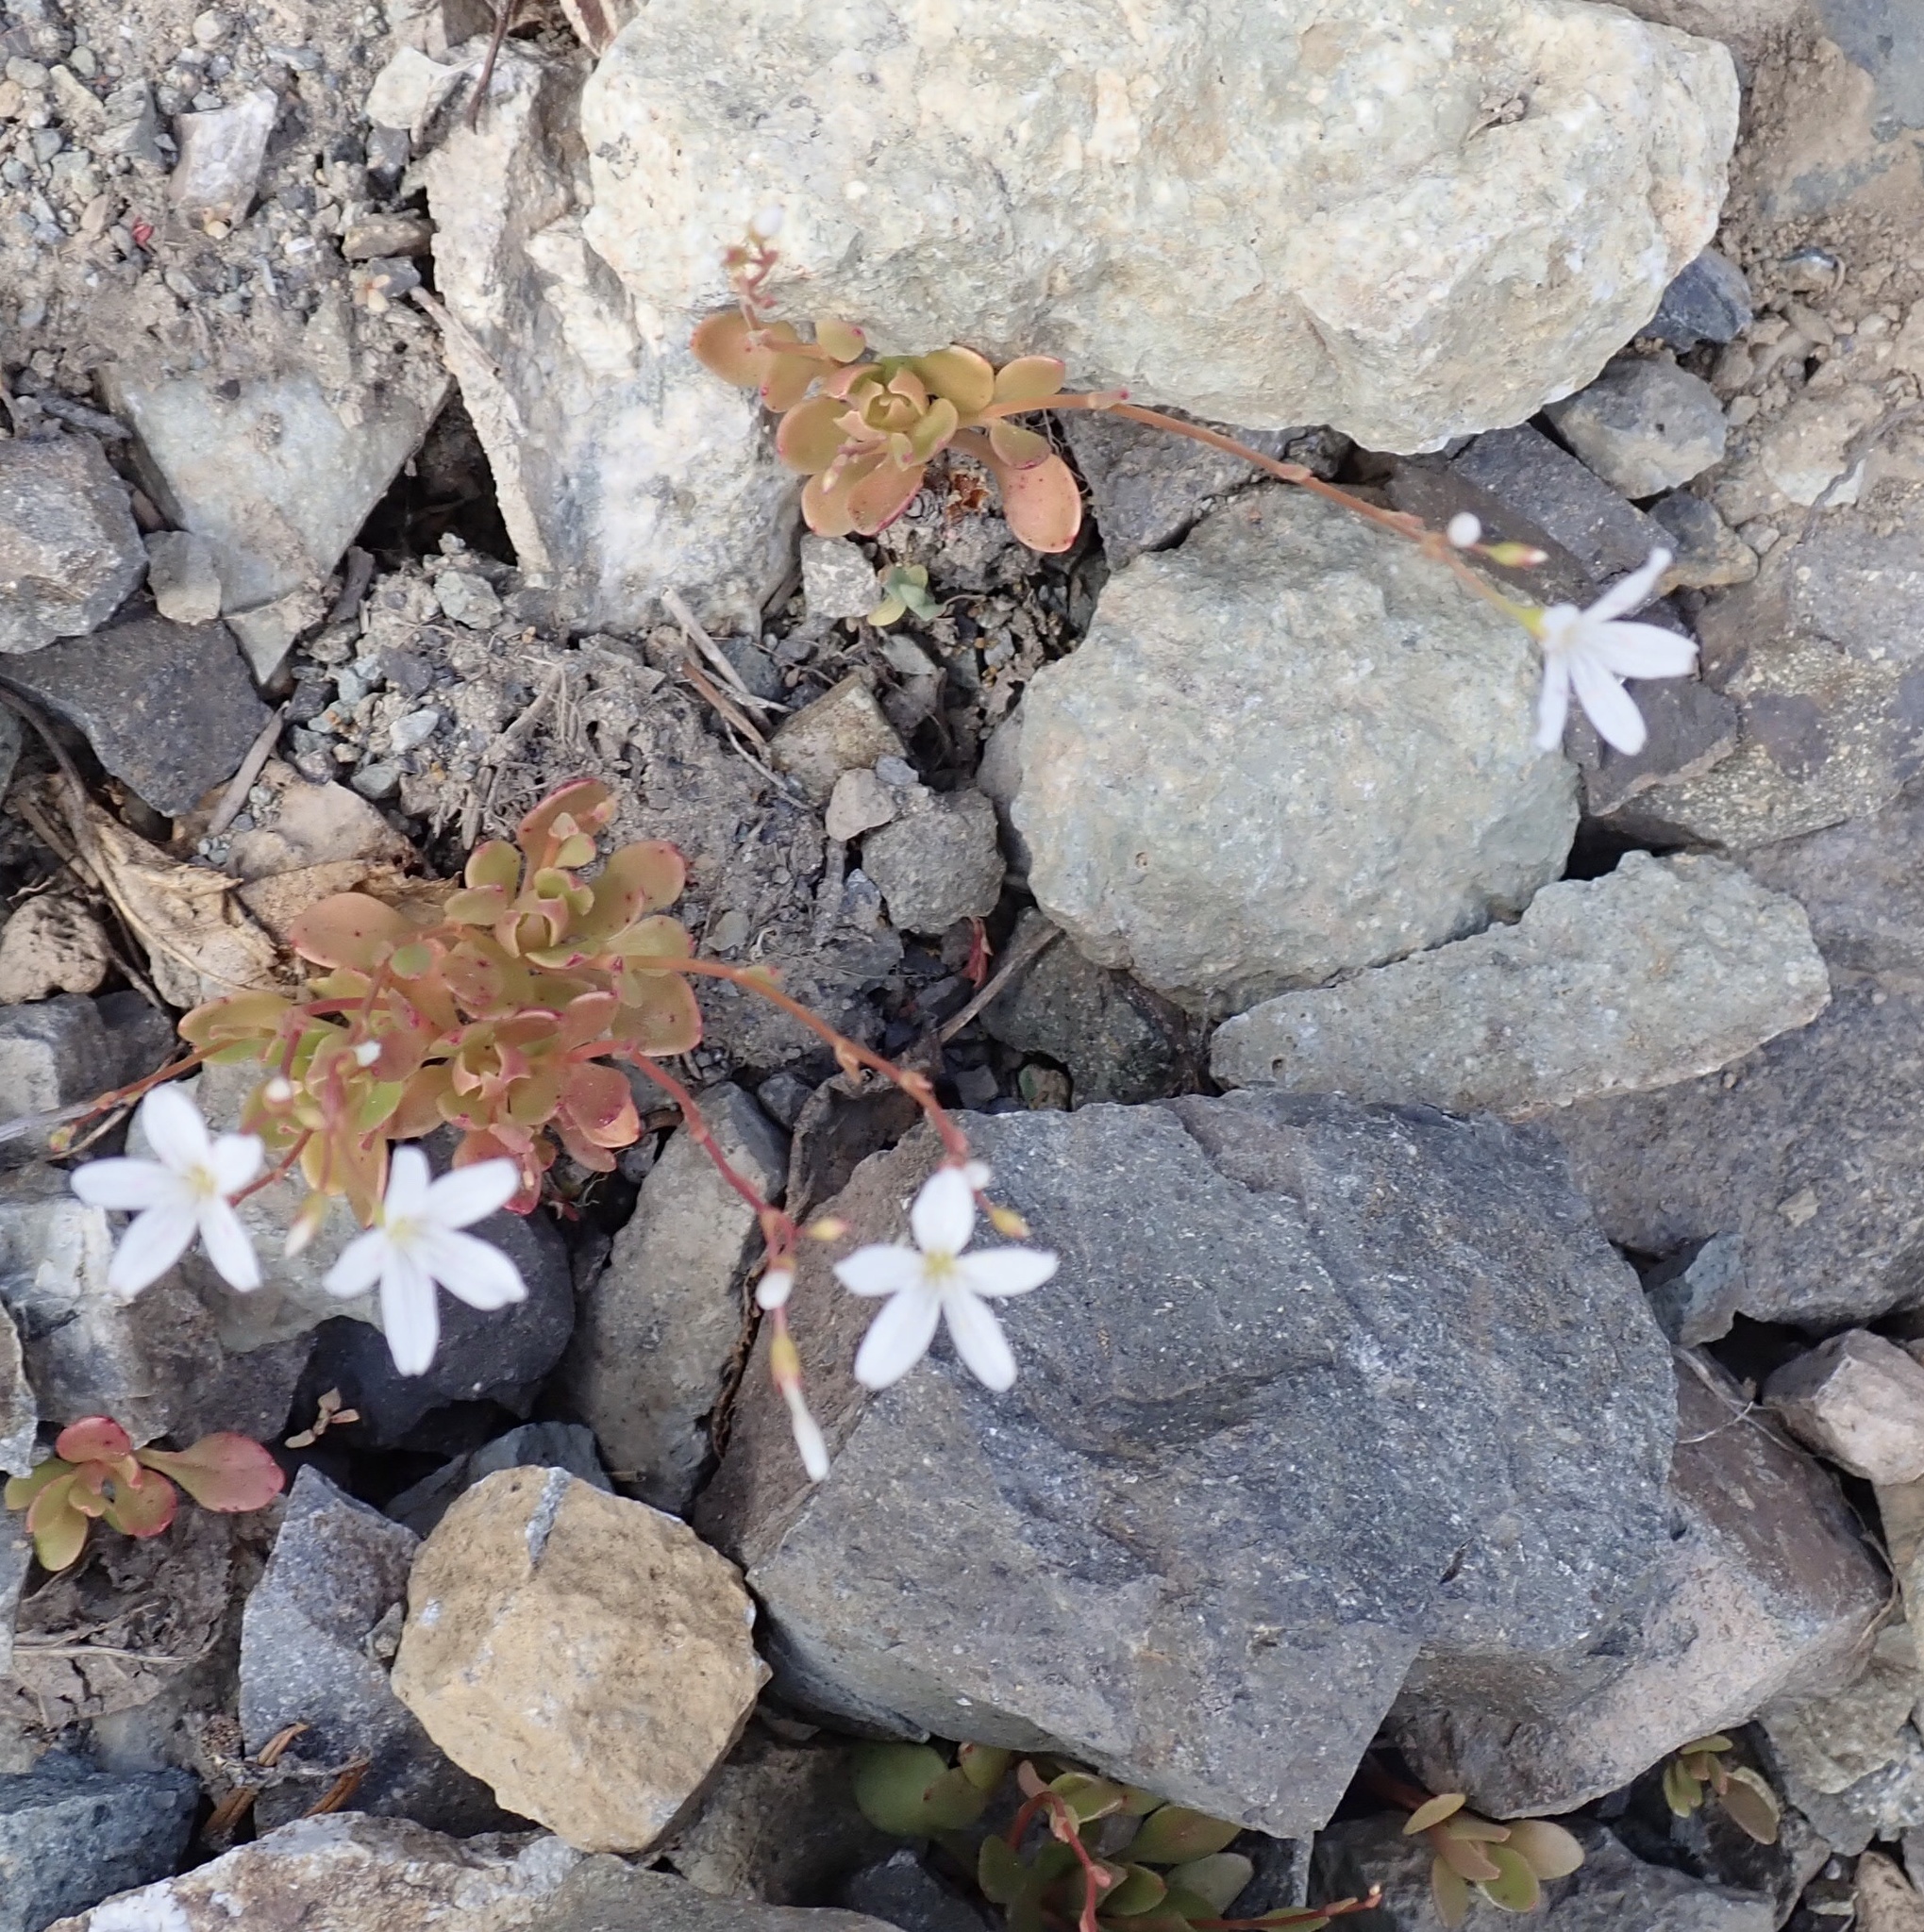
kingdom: Plantae
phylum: Tracheophyta
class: Magnoliopsida
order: Caryophyllales
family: Montiaceae
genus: Montia
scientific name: Montia parvifolia
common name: Small-leaved blinks
